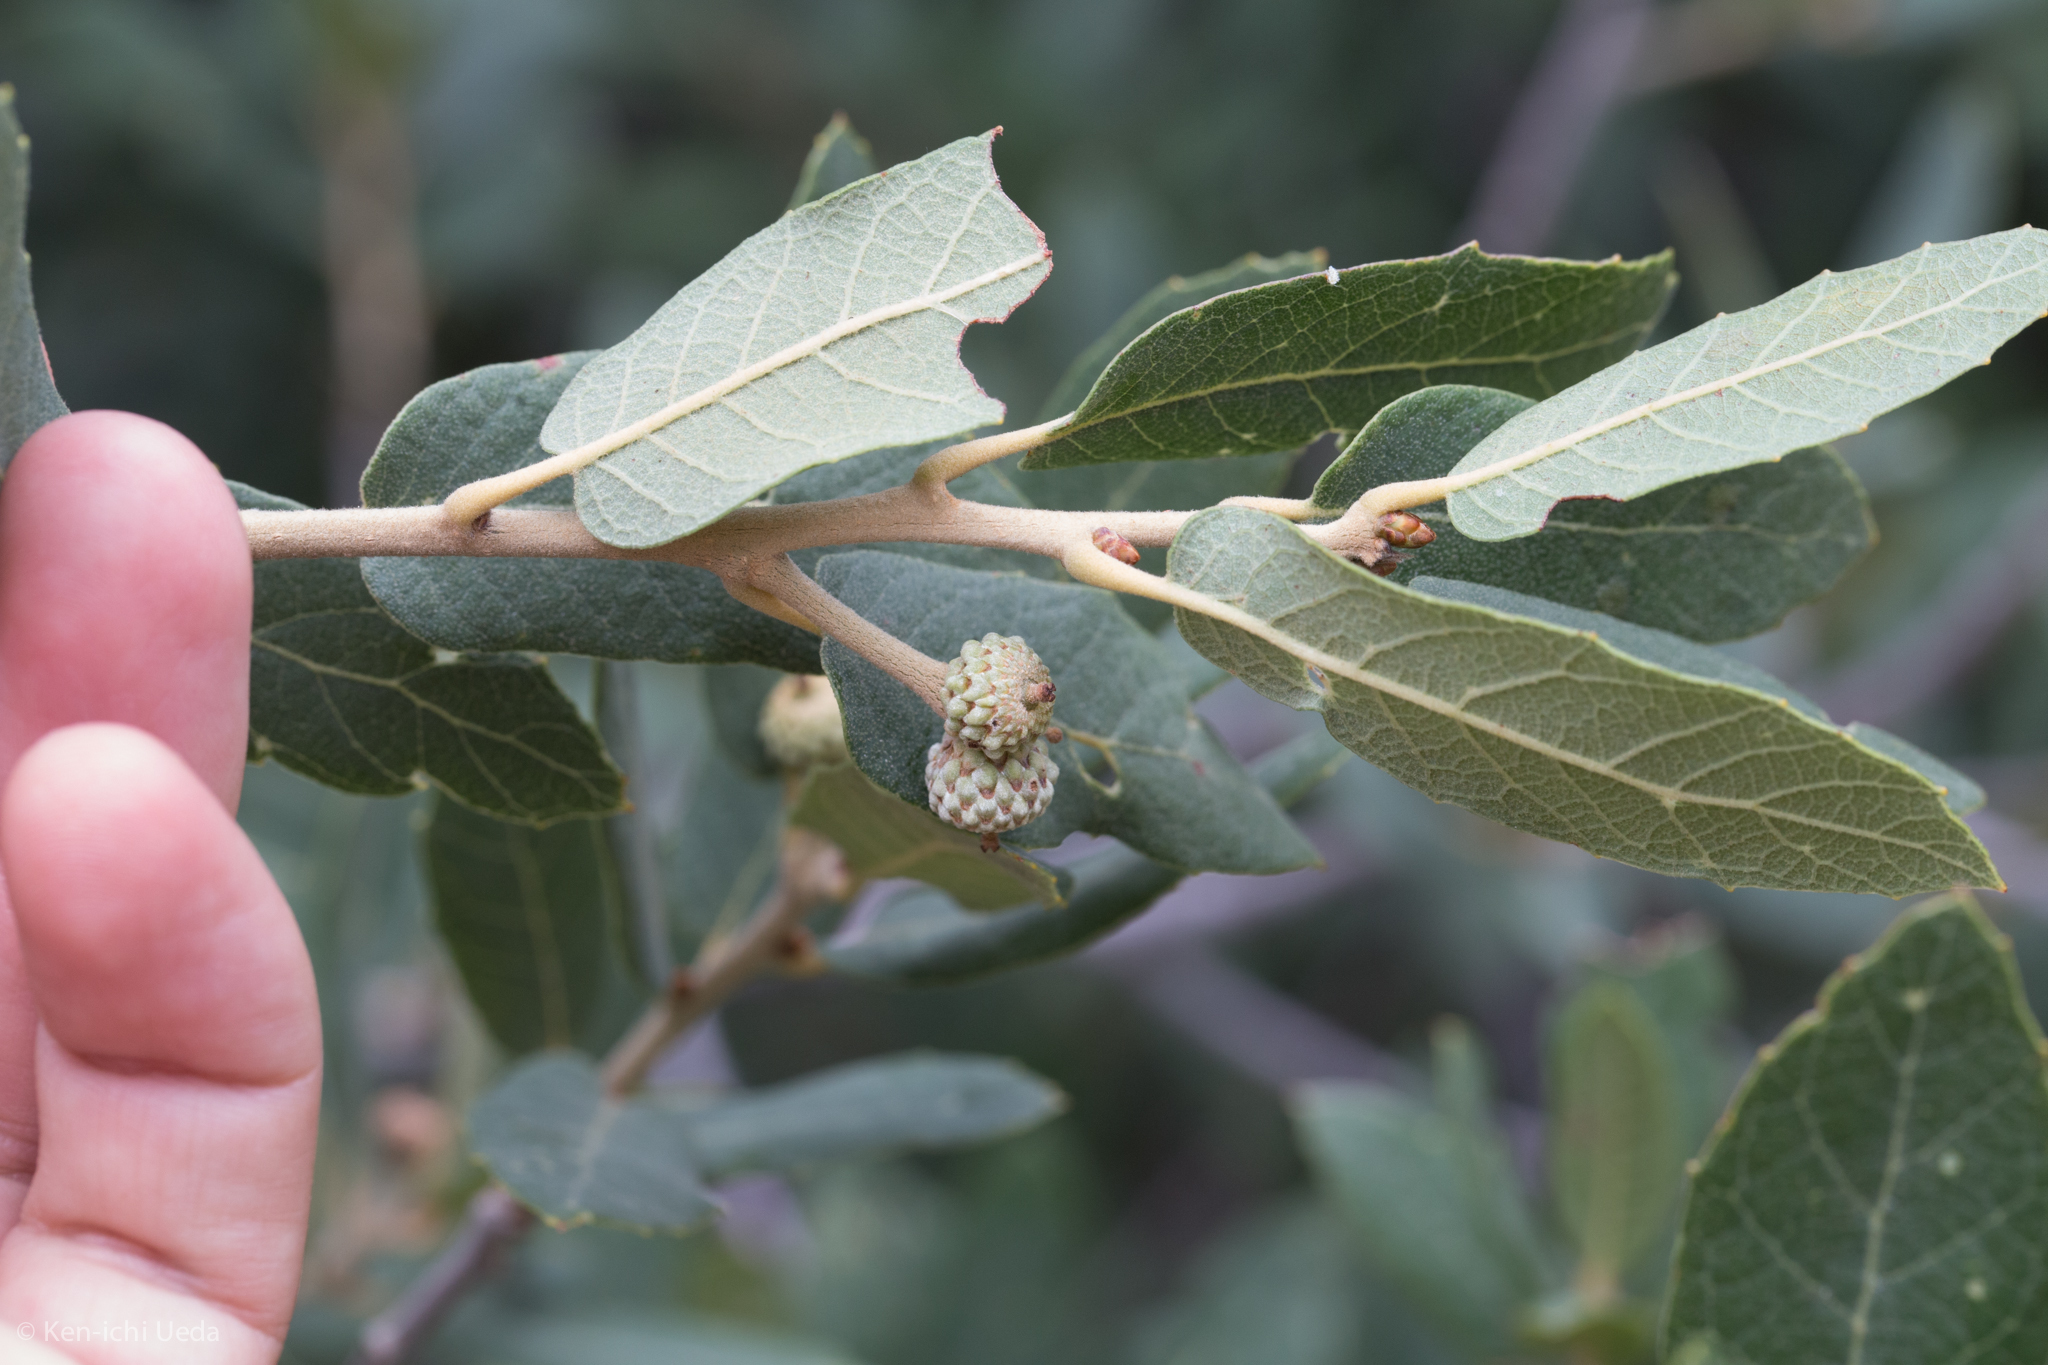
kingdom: Plantae
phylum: Tracheophyta
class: Magnoliopsida
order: Fagales
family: Fagaceae
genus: Quercus
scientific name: Quercus grisea
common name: Gray oak
